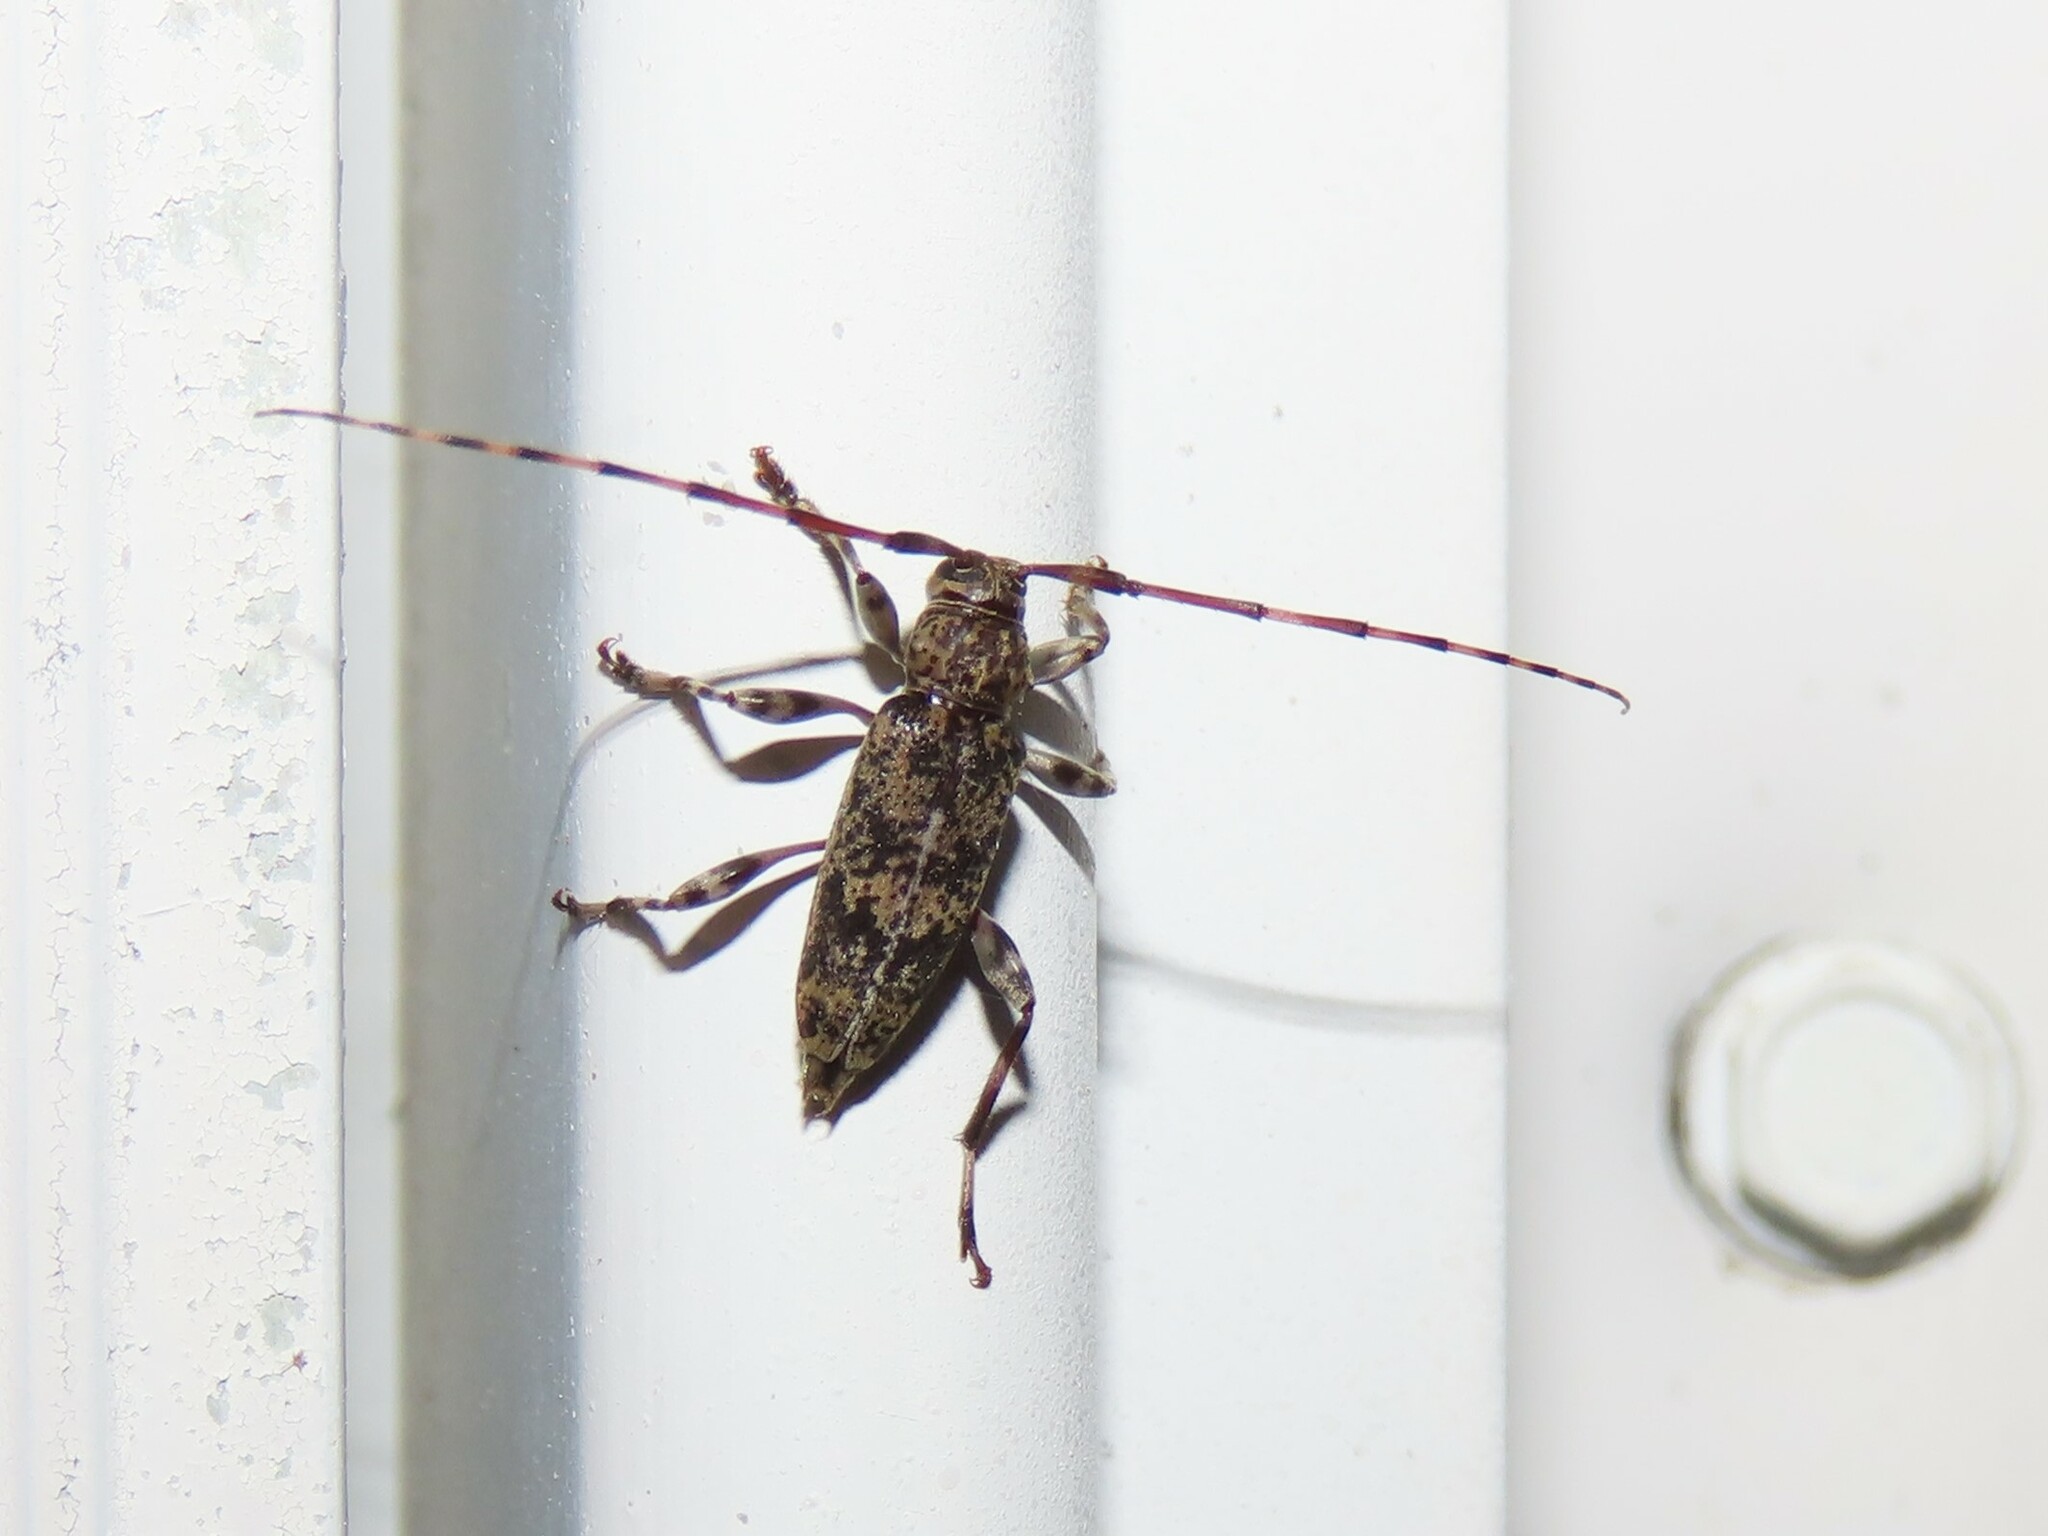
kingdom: Animalia
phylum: Arthropoda
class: Insecta
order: Coleoptera
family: Cerambycidae
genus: Graphisurus
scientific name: Graphisurus fasciatus
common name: Banded graphisurus
